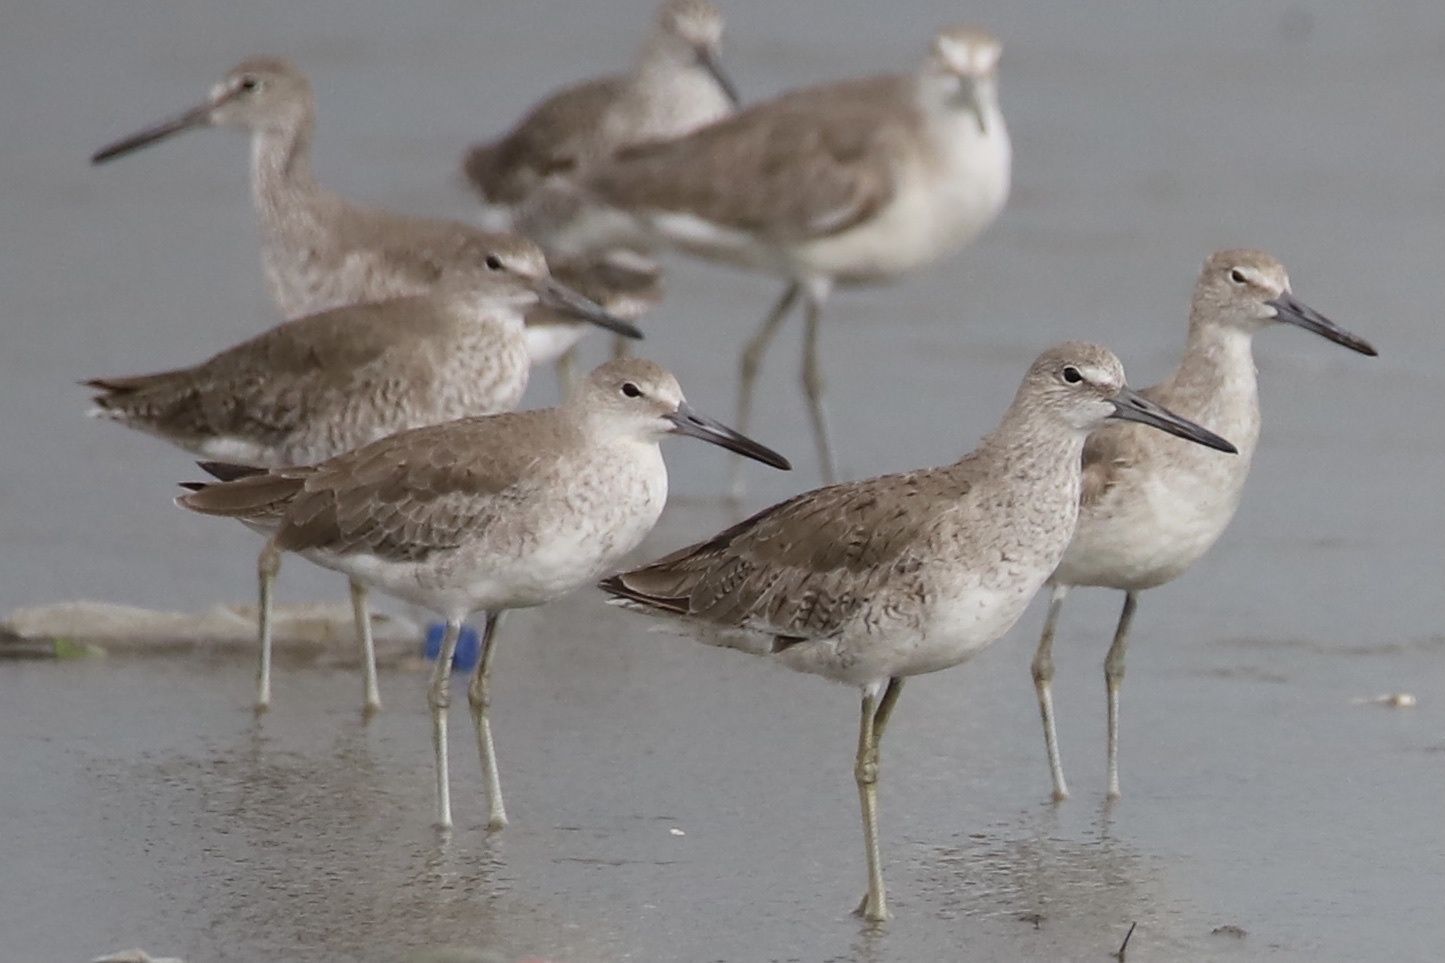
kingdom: Animalia
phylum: Chordata
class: Aves
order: Charadriiformes
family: Scolopacidae
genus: Tringa
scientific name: Tringa semipalmata
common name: Willet
